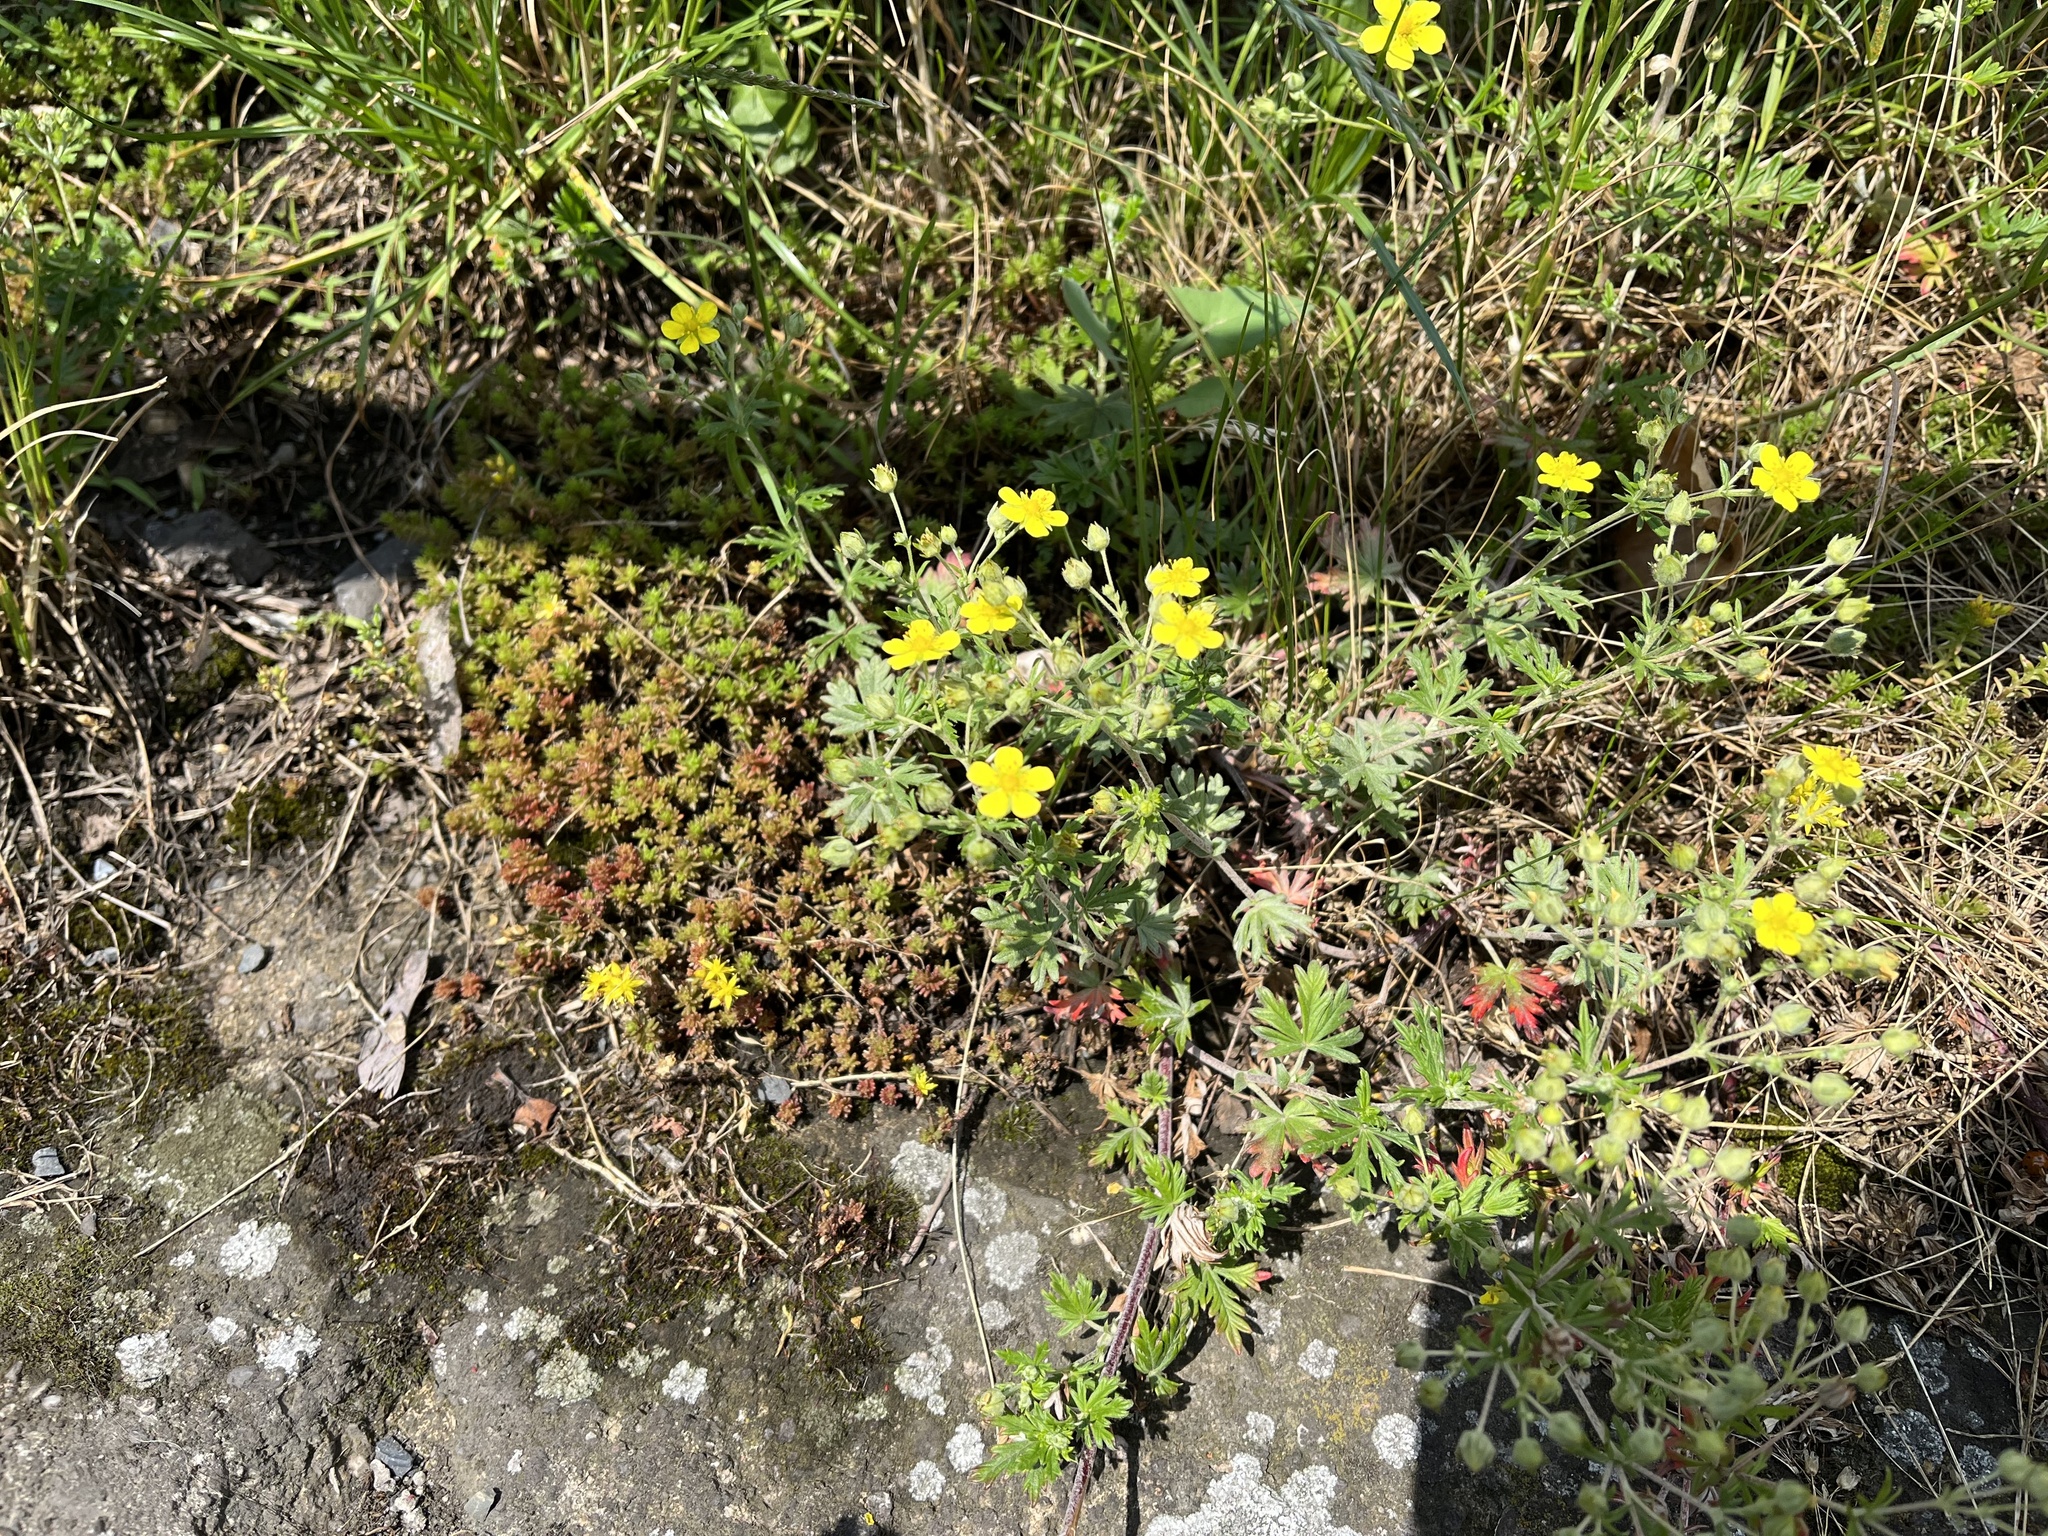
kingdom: Plantae
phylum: Tracheophyta
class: Magnoliopsida
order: Rosales
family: Rosaceae
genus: Potentilla
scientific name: Potentilla argentea
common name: Hoary cinquefoil
